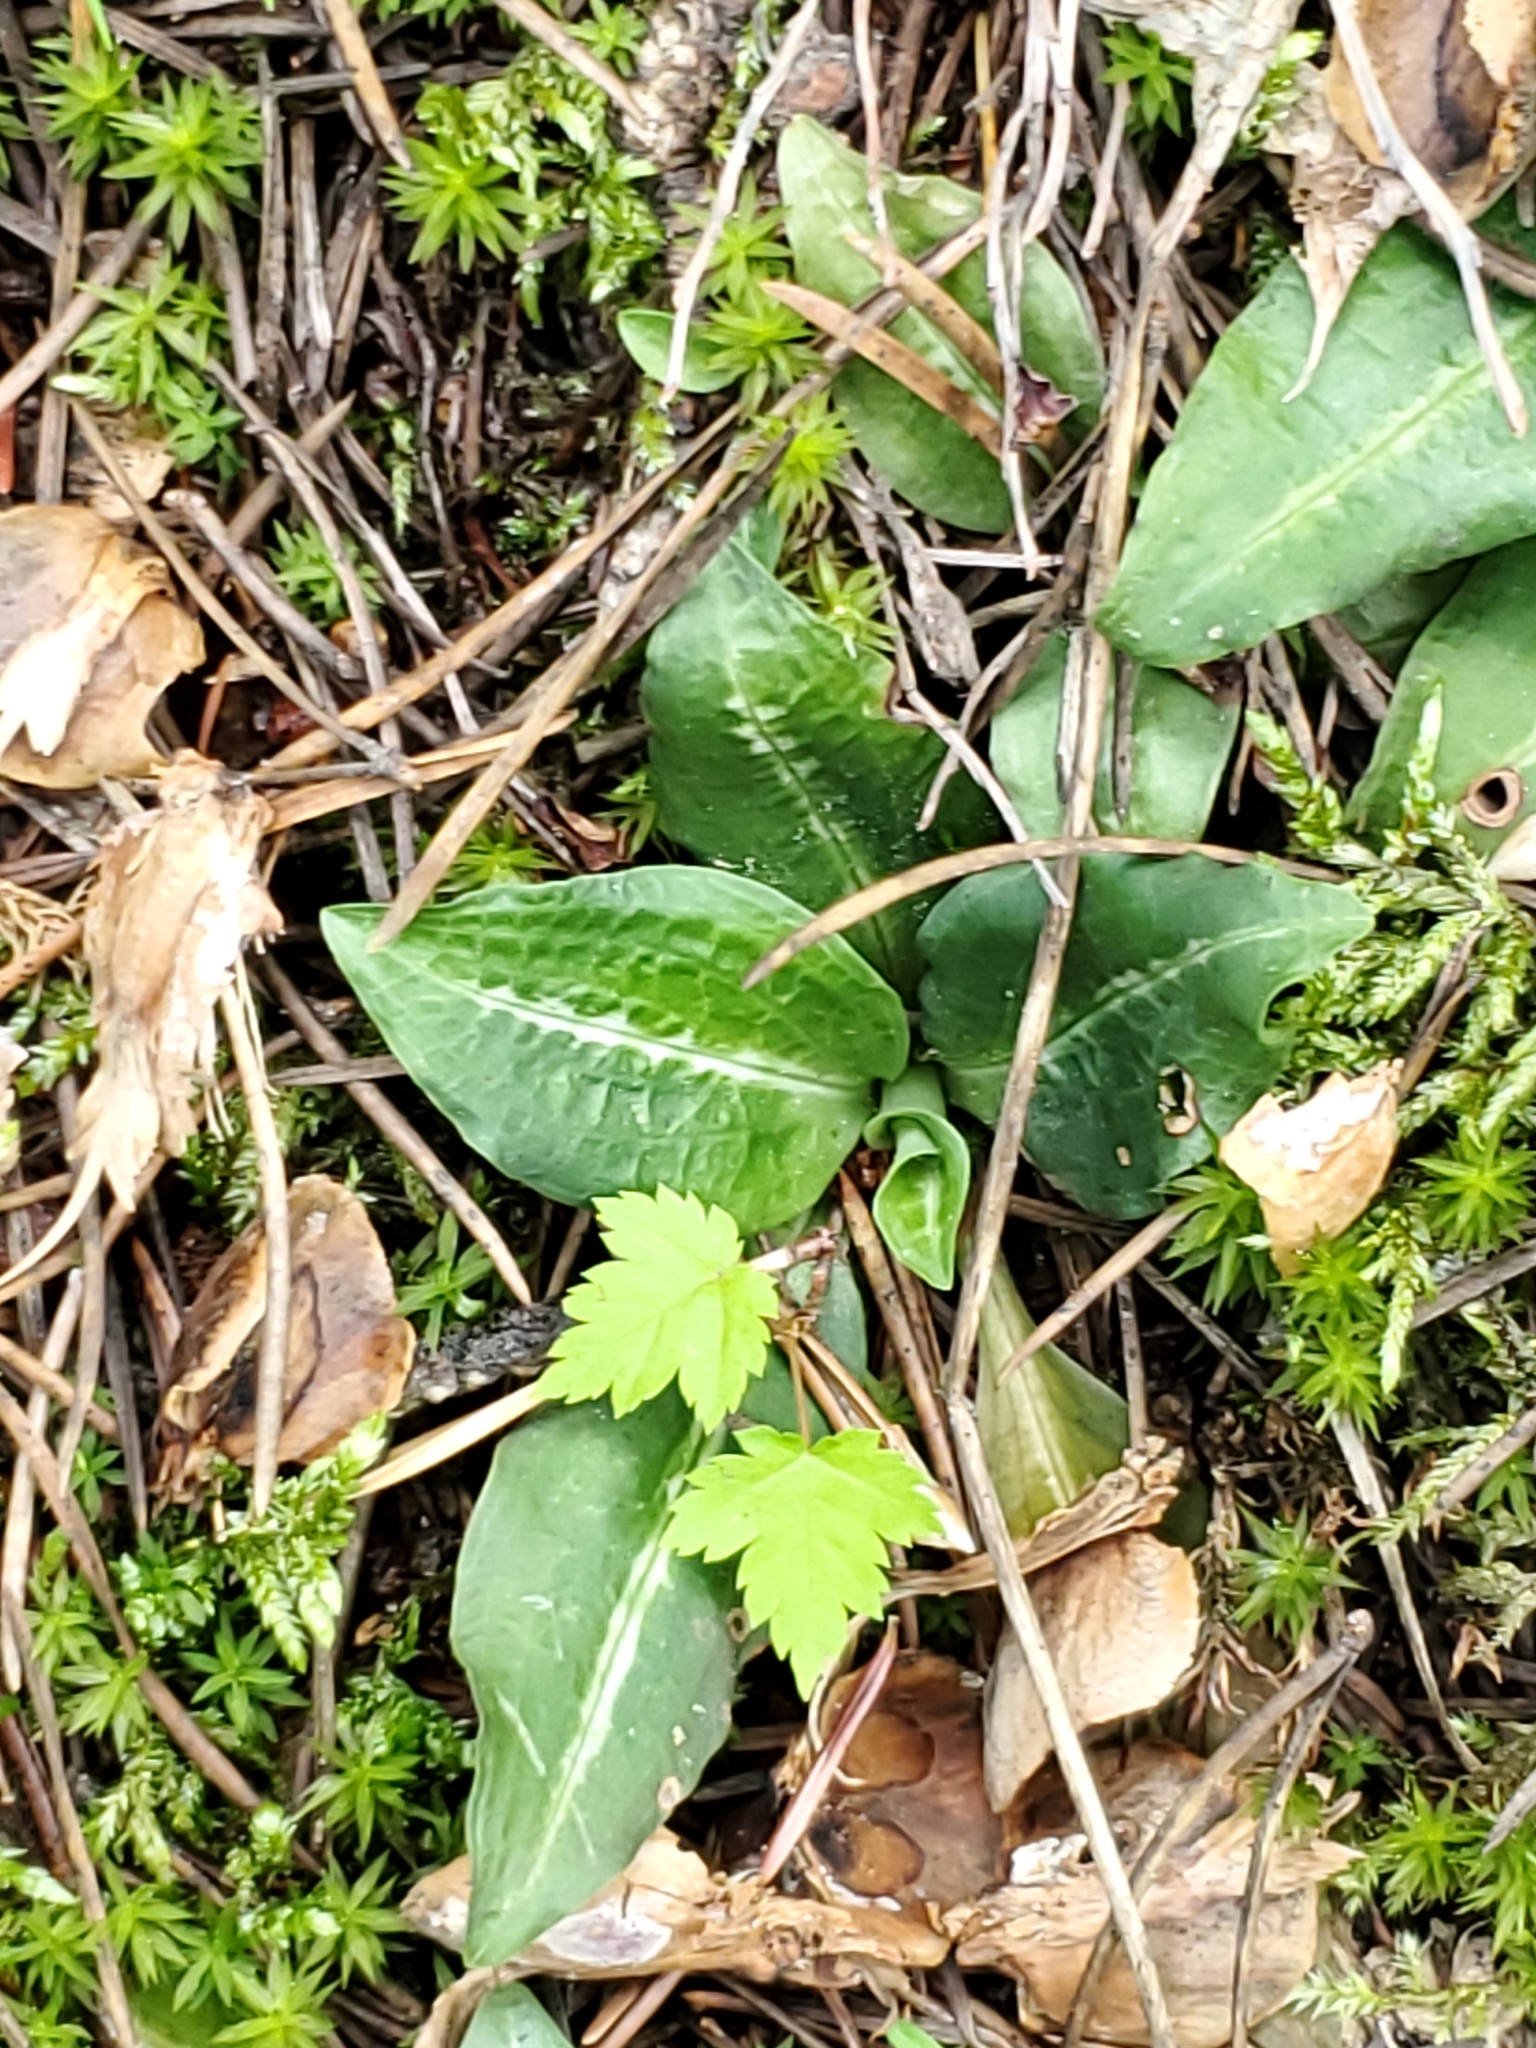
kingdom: Plantae
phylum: Tracheophyta
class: Liliopsida
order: Asparagales
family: Orchidaceae
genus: Goodyera
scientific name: Goodyera oblongifolia
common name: Giant rattlesnake-plantain
